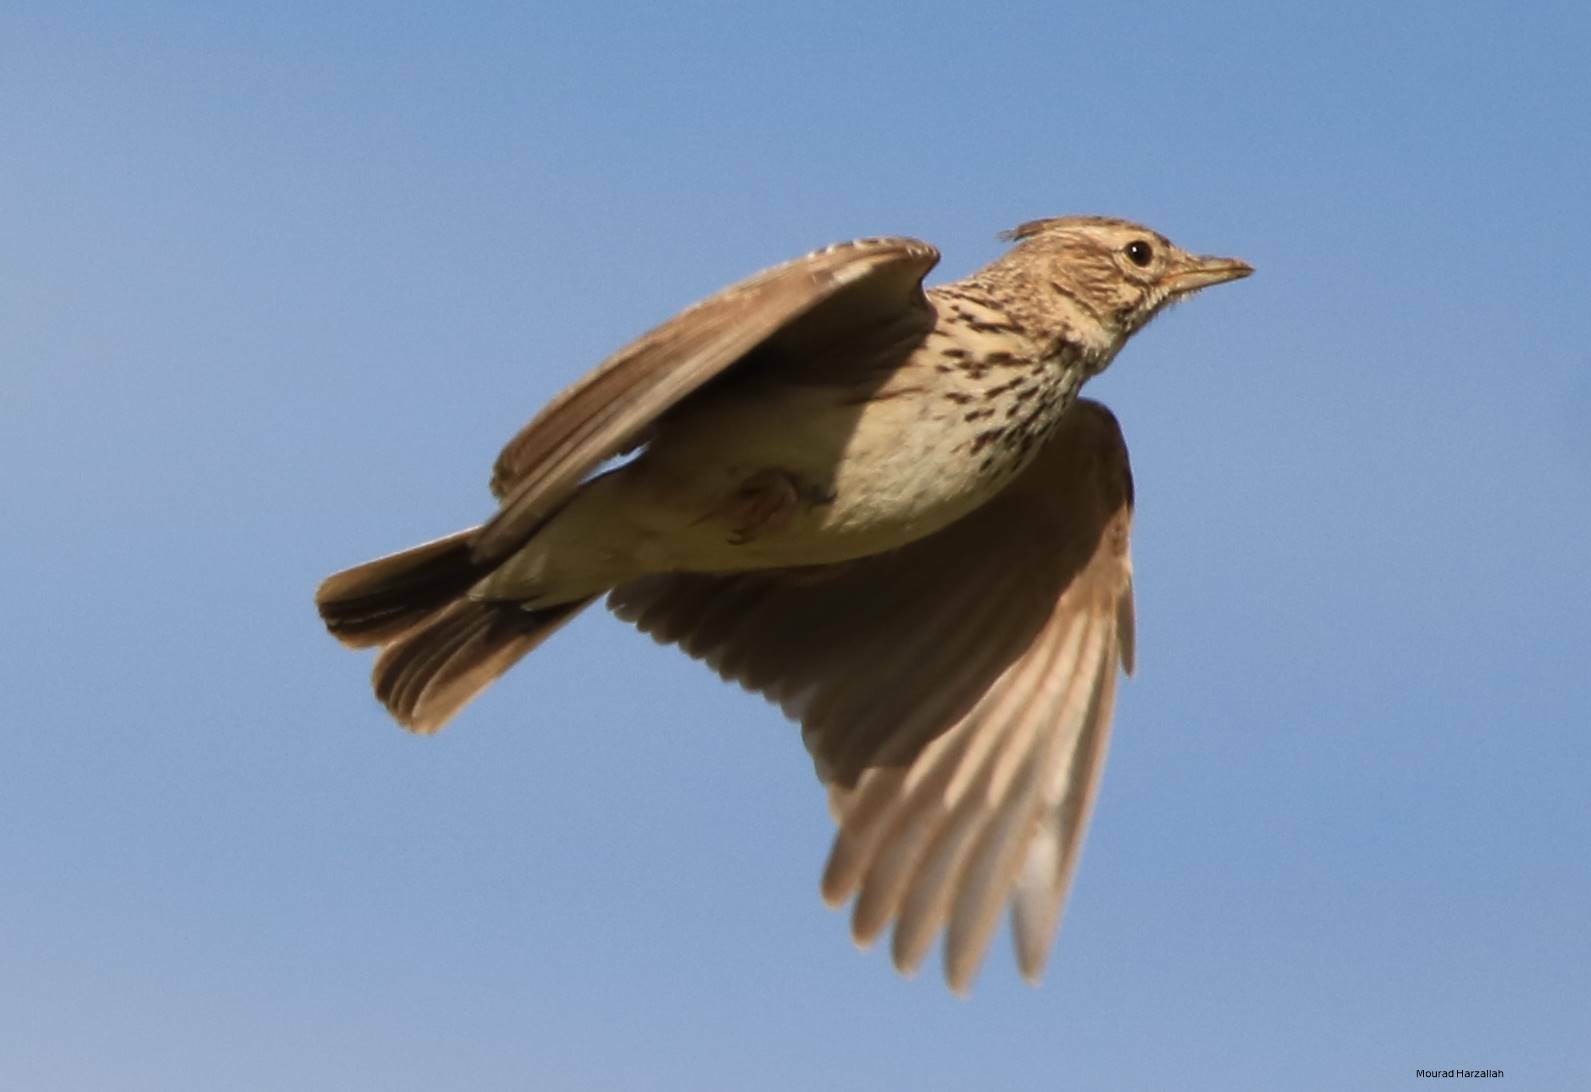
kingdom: Animalia
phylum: Chordata
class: Aves
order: Passeriformes
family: Alaudidae
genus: Galerida
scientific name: Galerida cristata
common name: Crested lark
